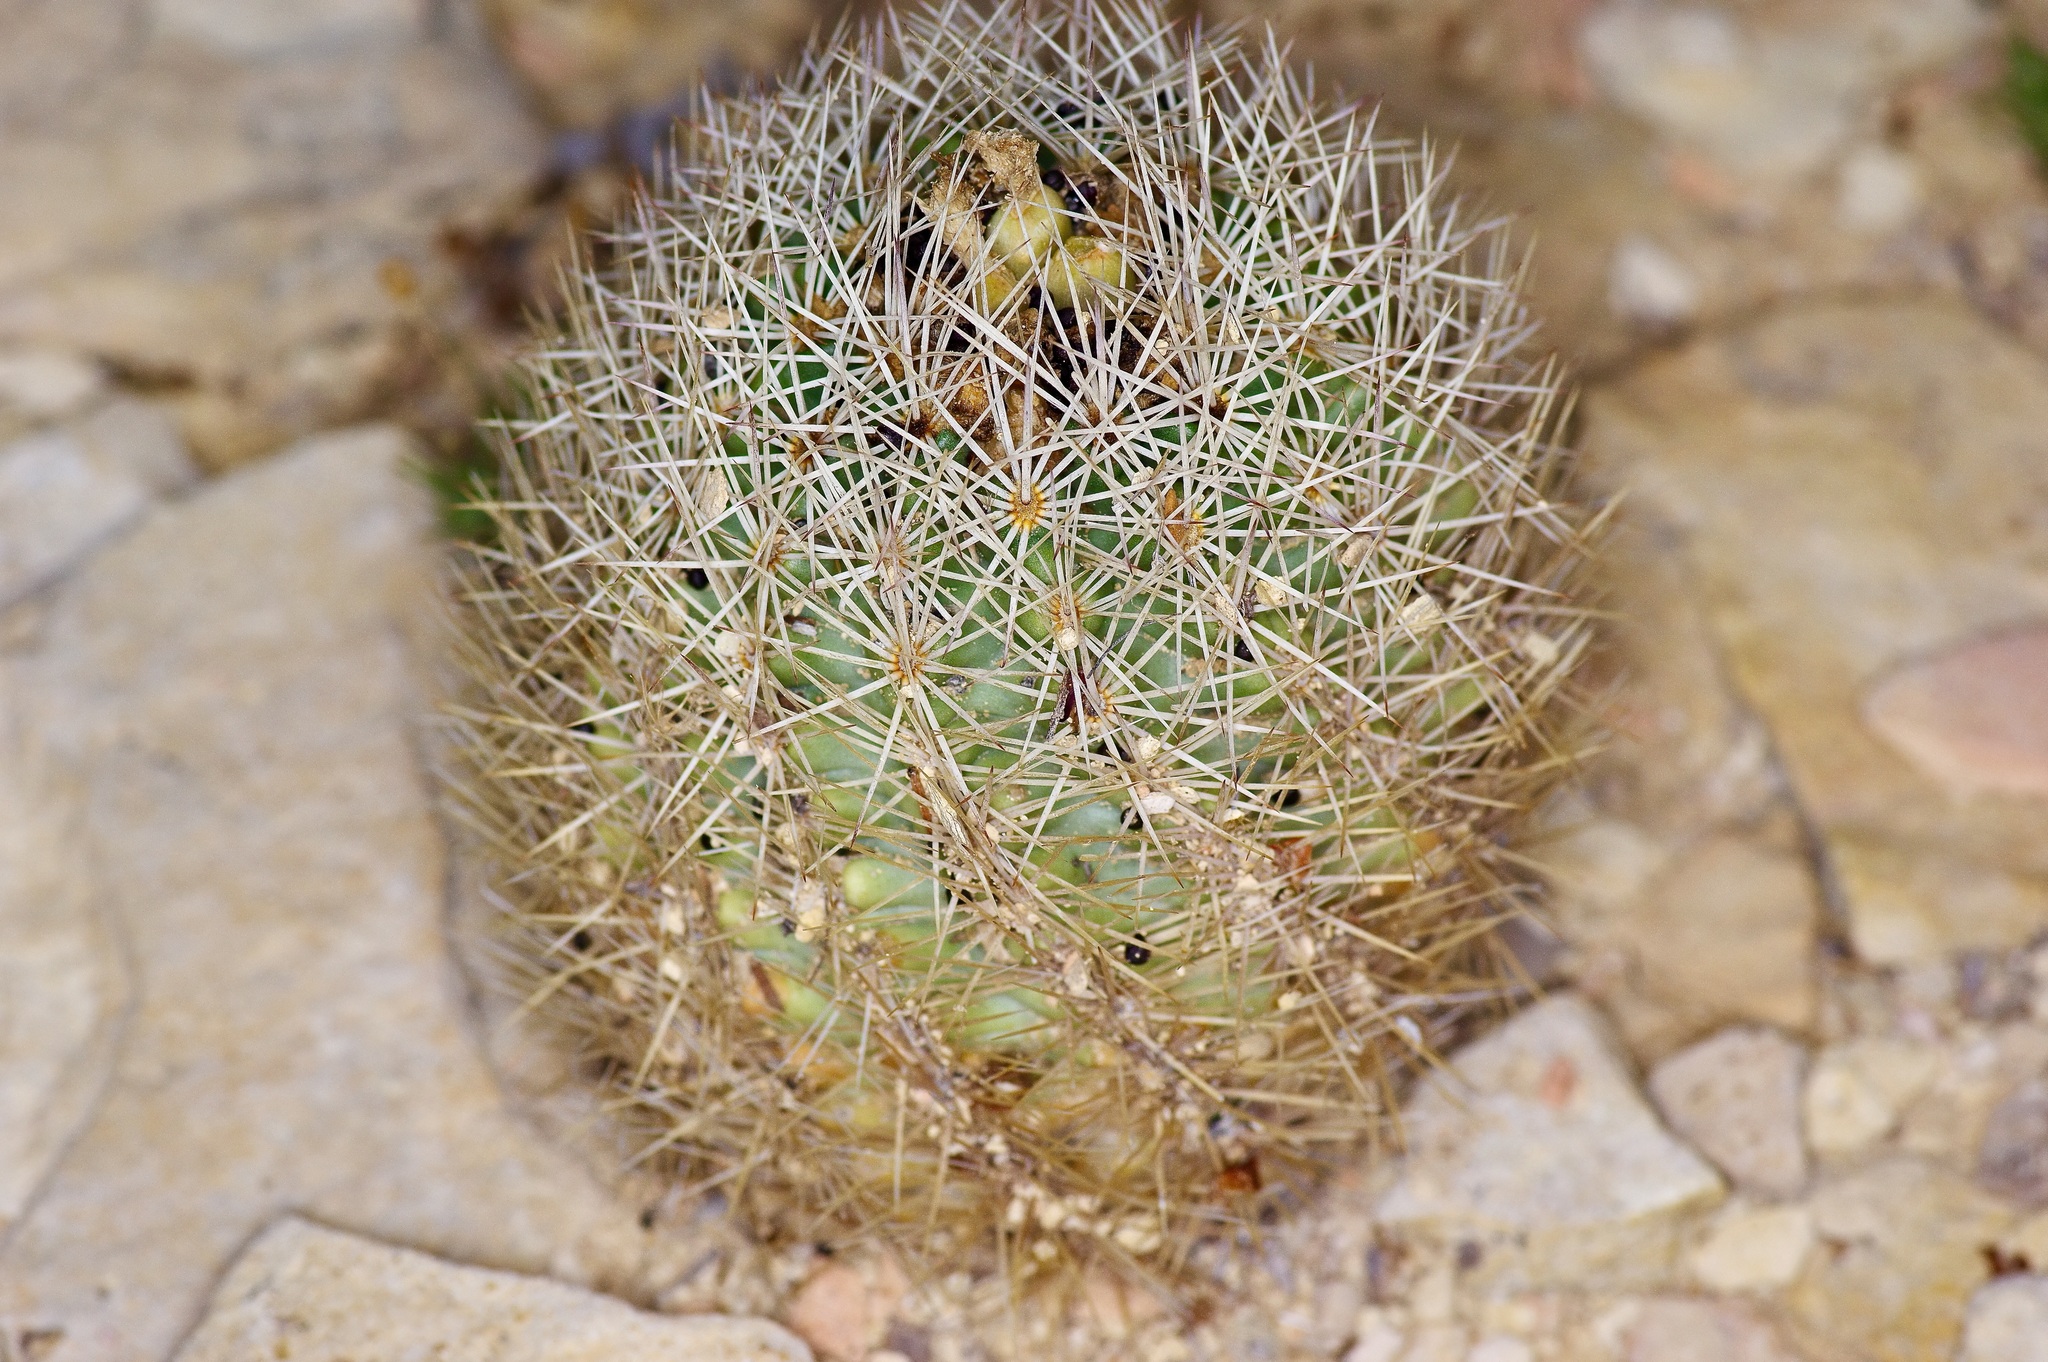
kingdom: Plantae
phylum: Tracheophyta
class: Magnoliopsida
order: Caryophyllales
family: Cactaceae
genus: Sclerocactus
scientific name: Sclerocactus warnockii
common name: Pineapple cactus
